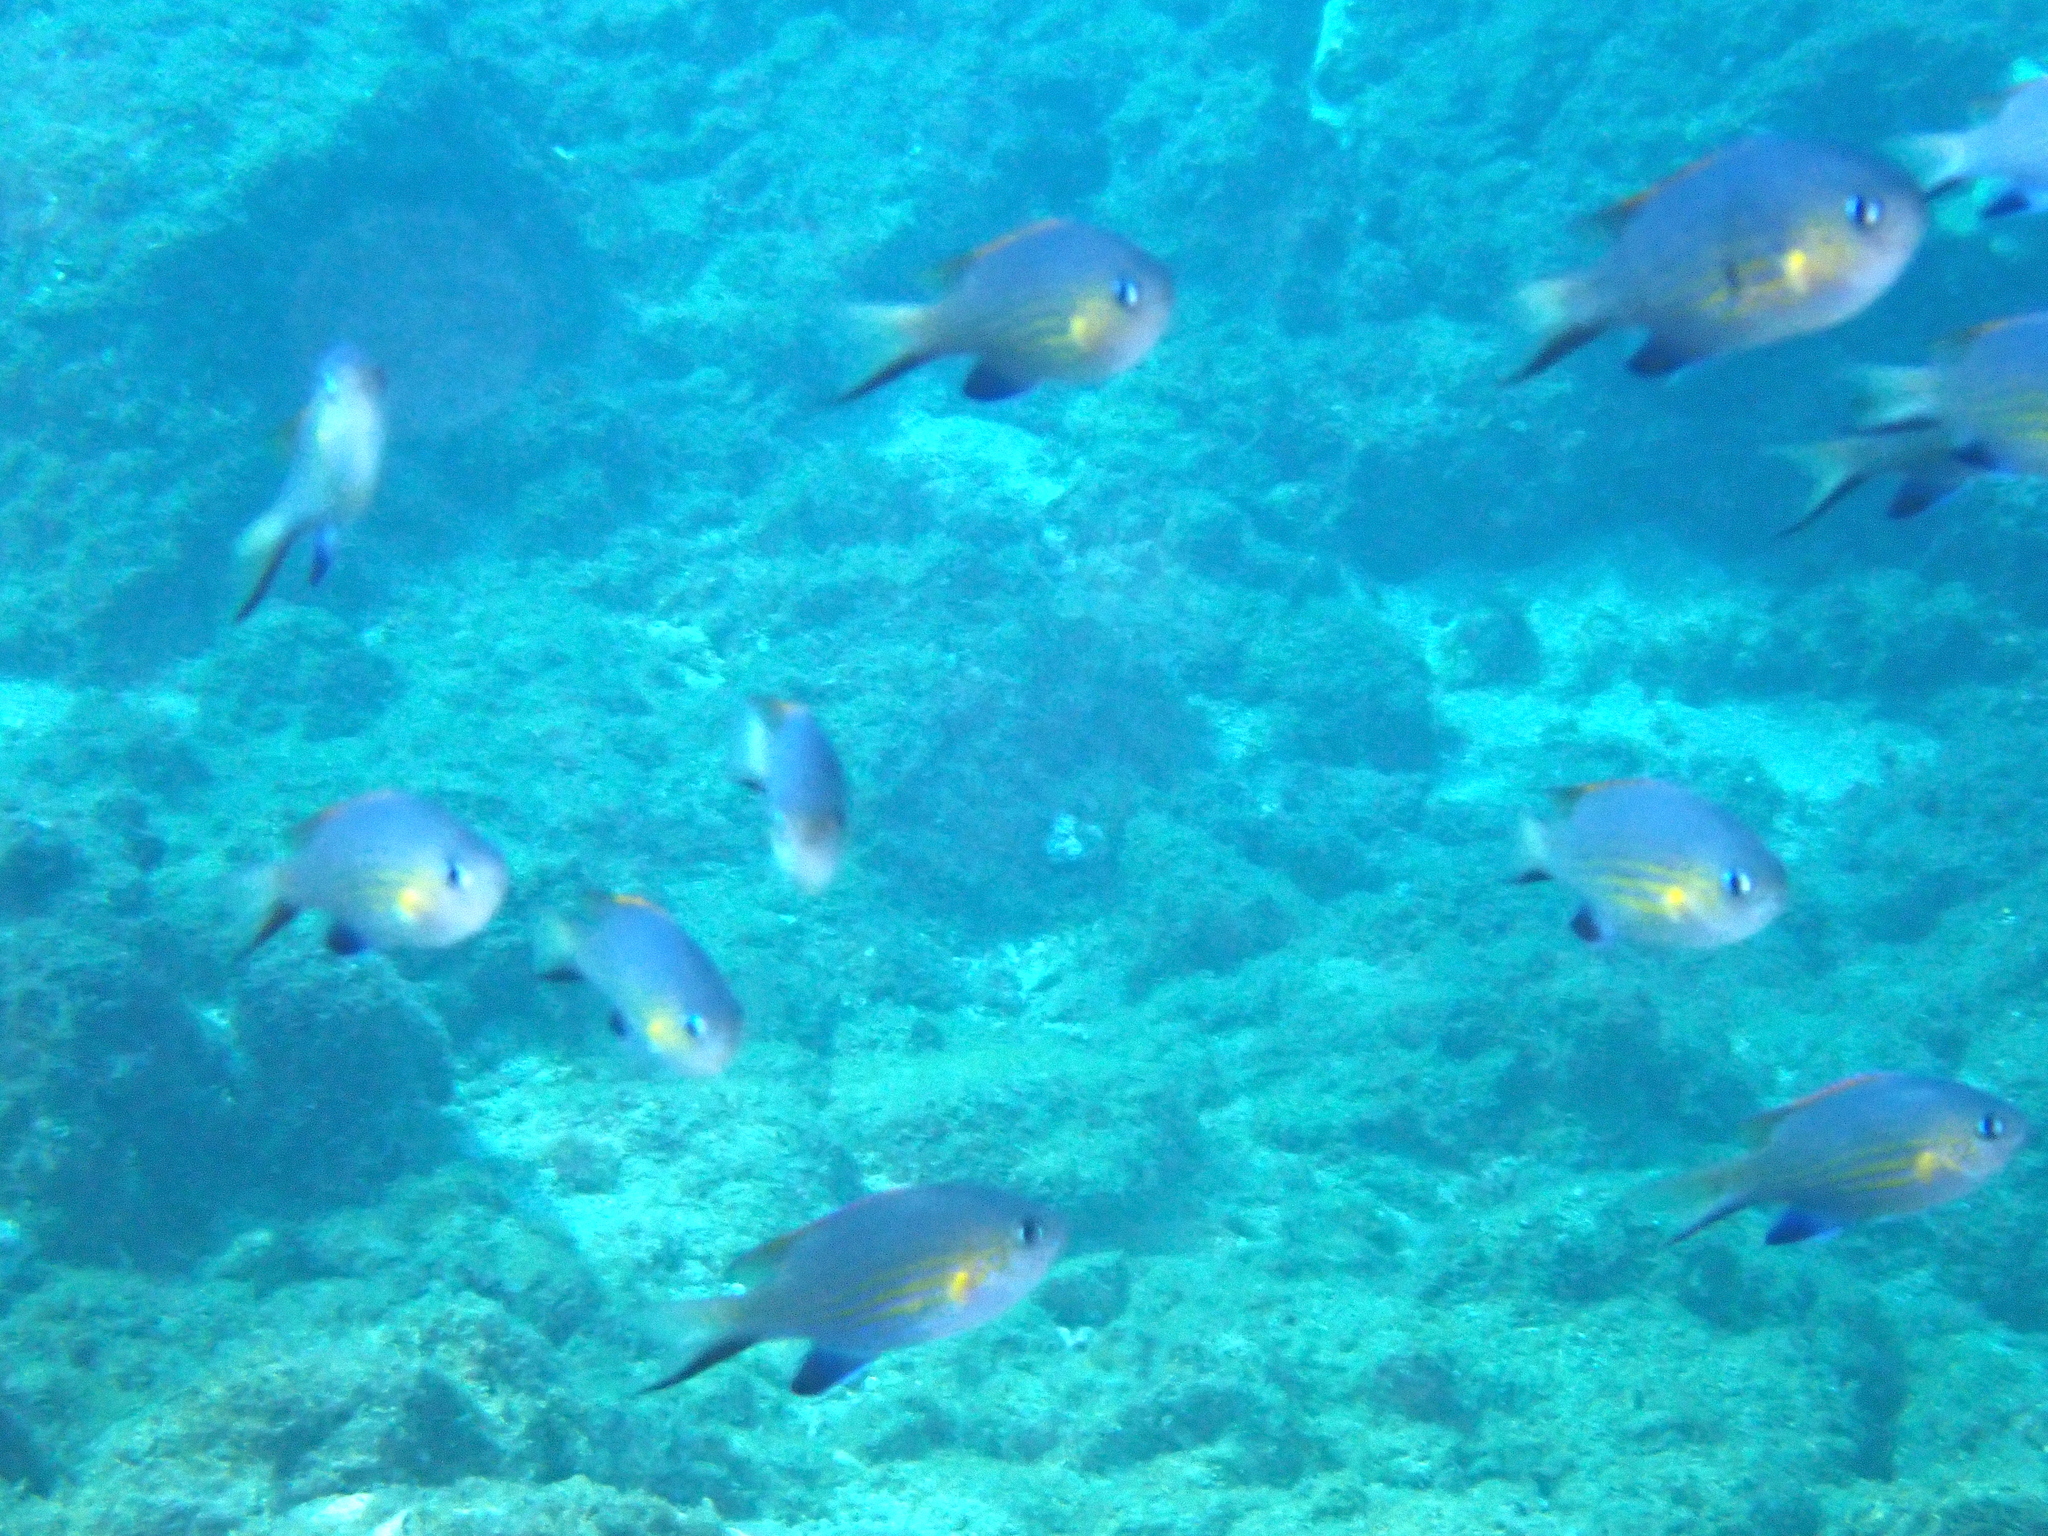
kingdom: Animalia
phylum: Chordata
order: Perciformes
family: Pomacentridae
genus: Chromis
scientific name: Chromis vanderbilti
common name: Vanderbilt's chromis
